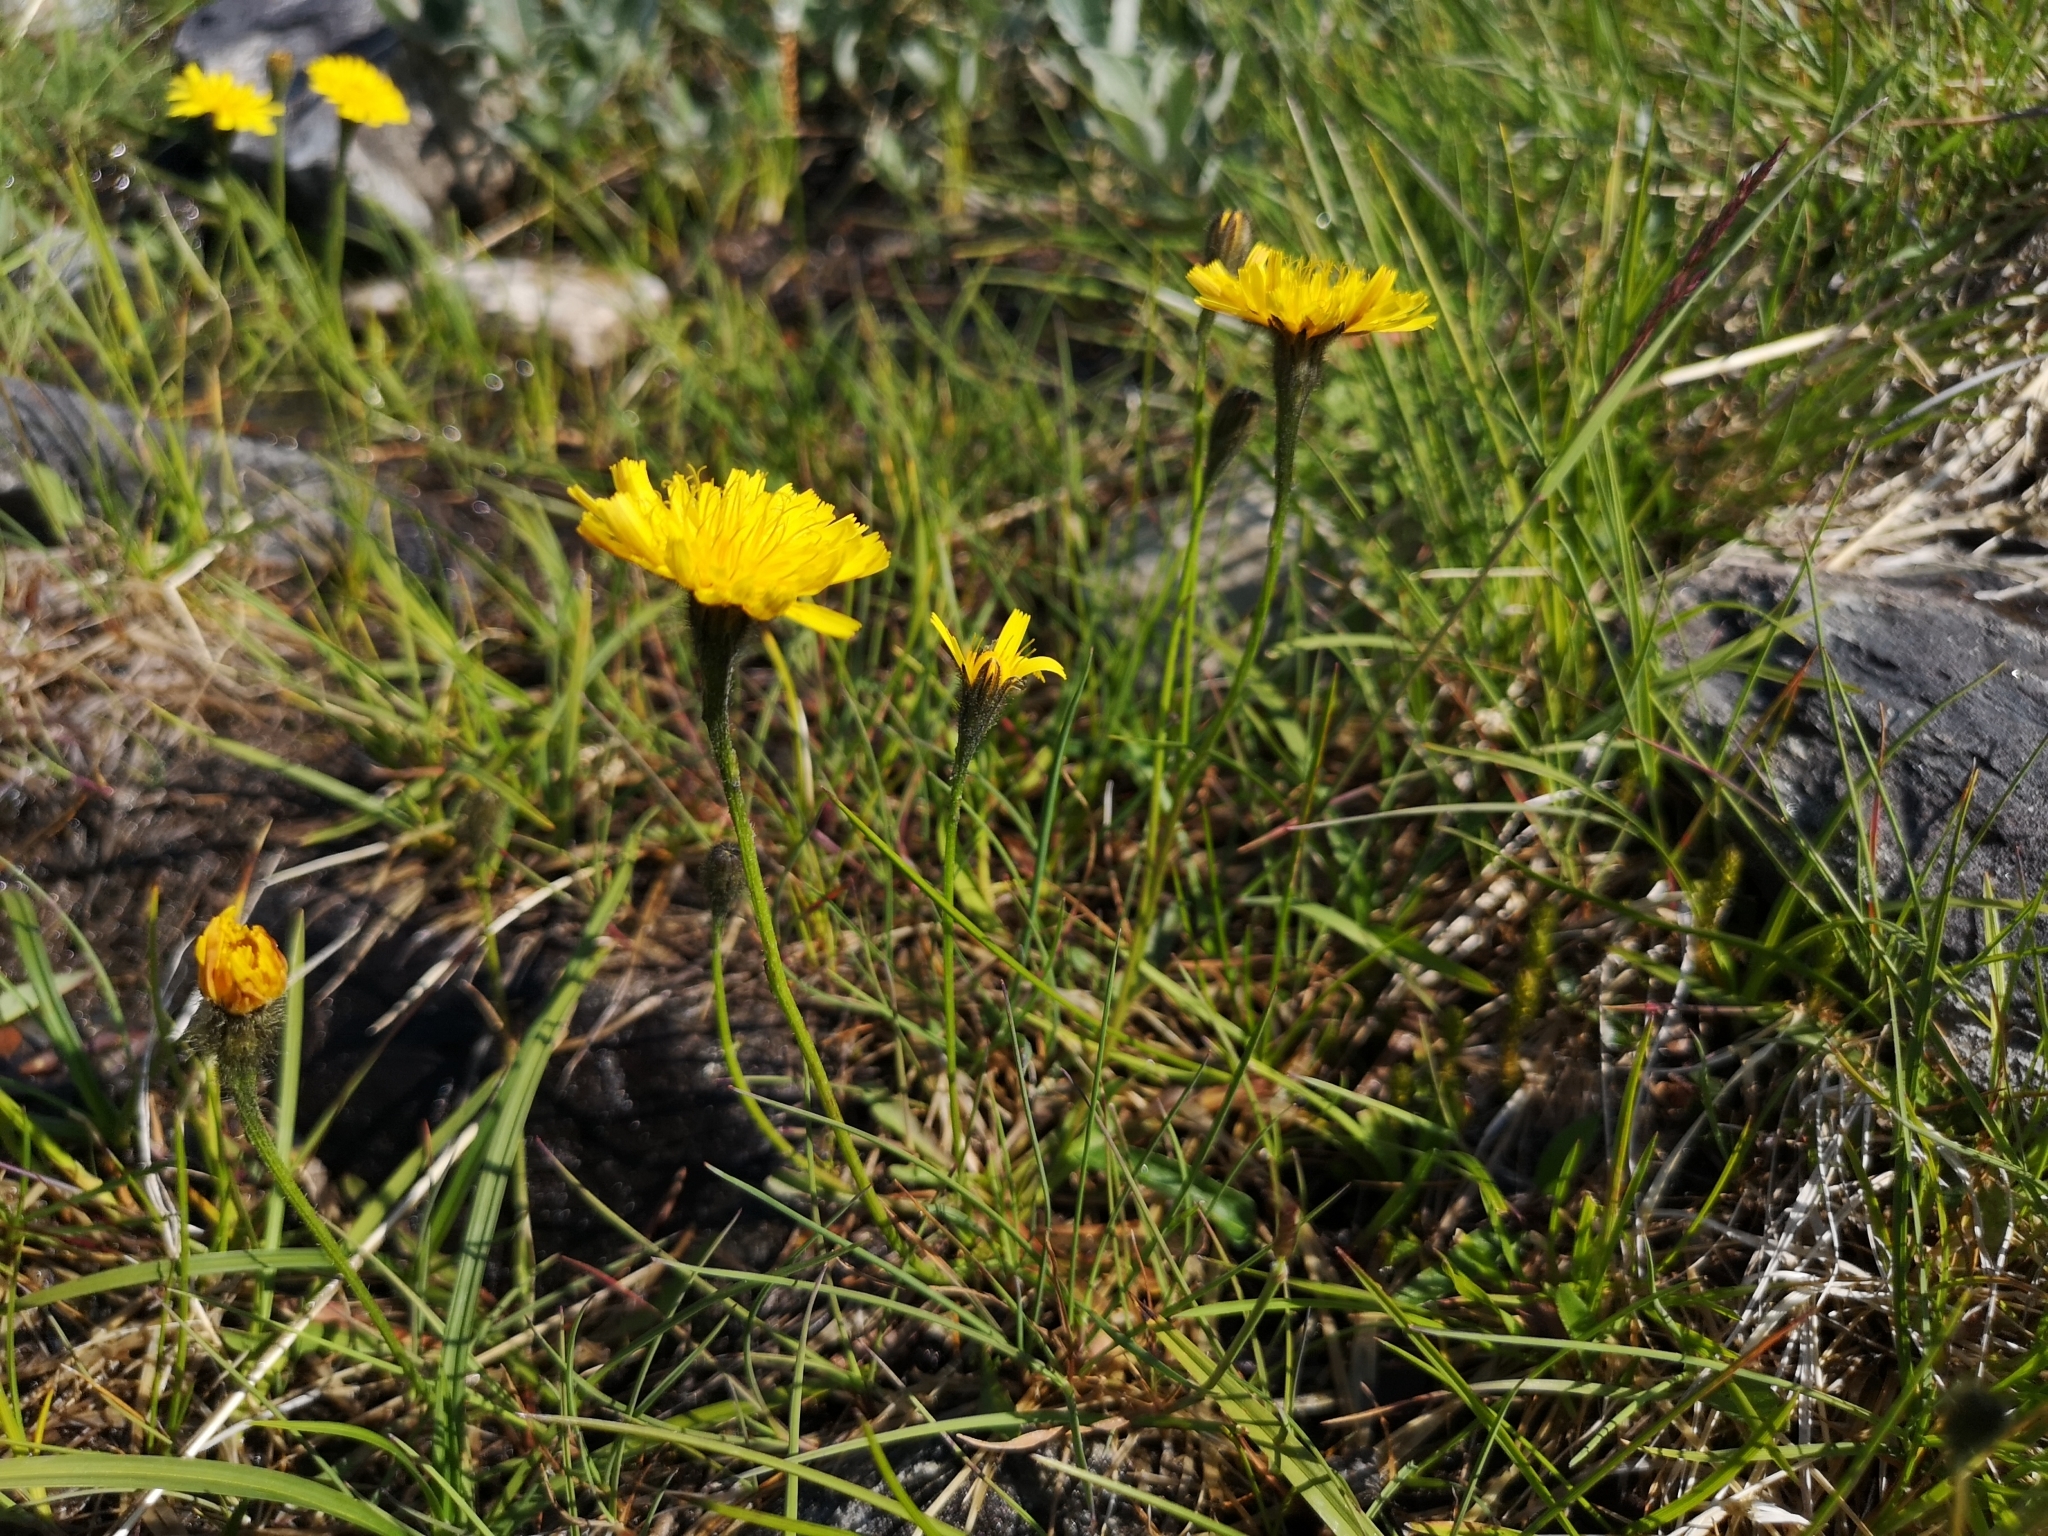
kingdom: Plantae
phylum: Tracheophyta
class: Magnoliopsida
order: Asterales
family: Asteraceae
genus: Scorzoneroides
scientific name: Scorzoneroides autumnalis
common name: Autumn hawkbit
